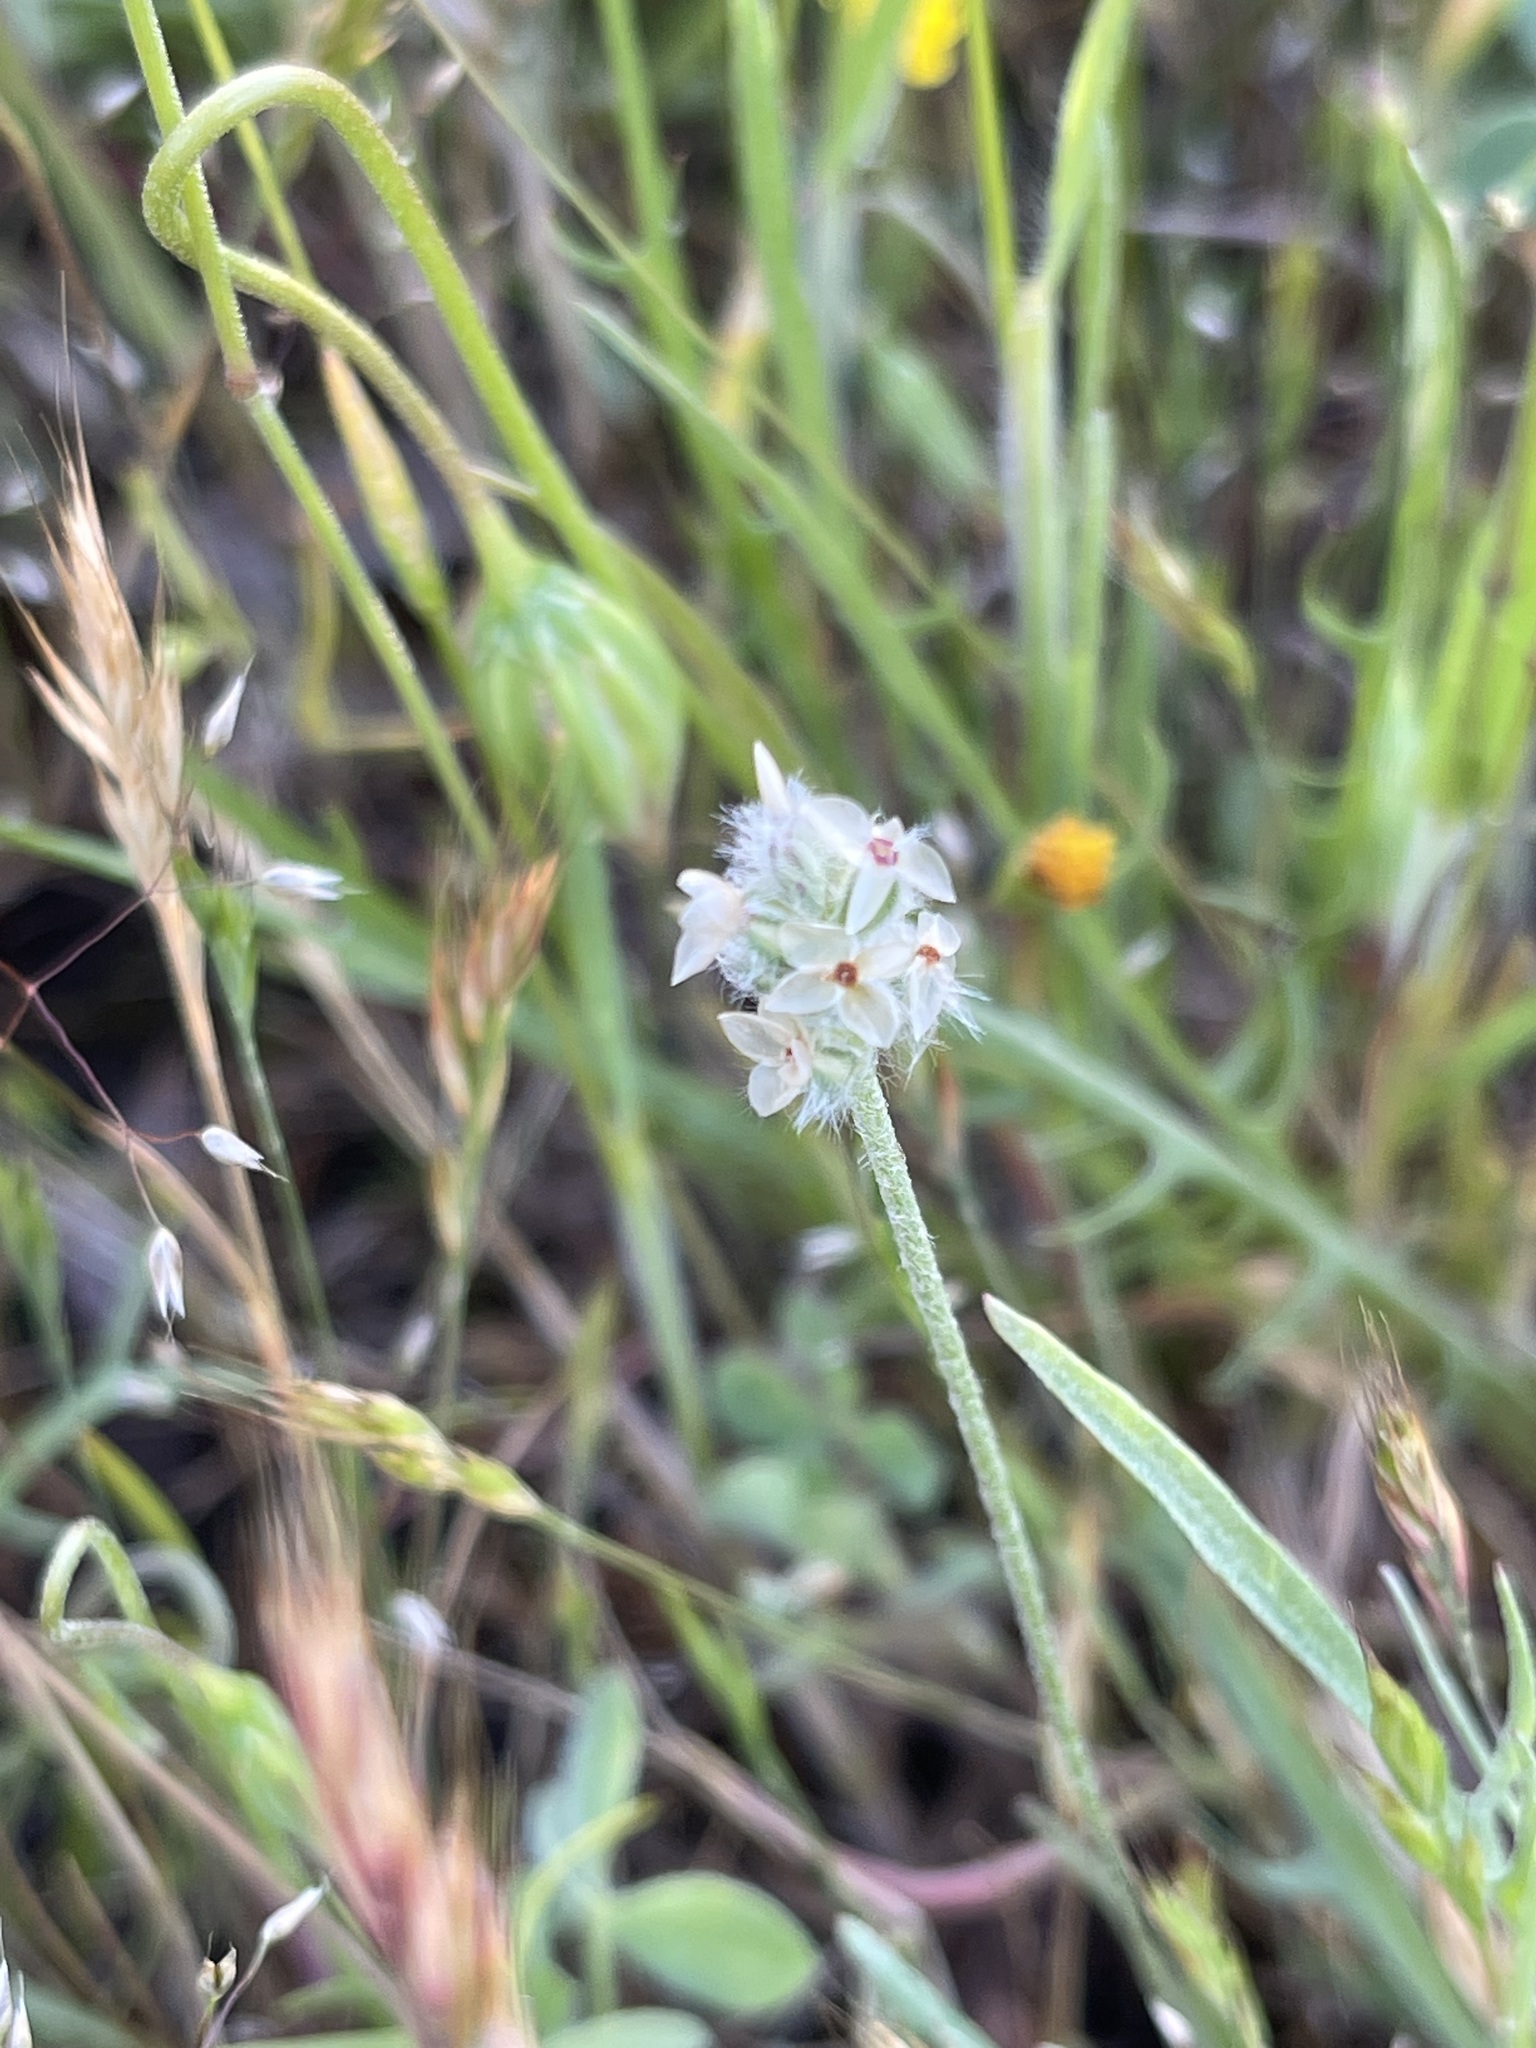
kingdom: Plantae
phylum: Tracheophyta
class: Magnoliopsida
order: Lamiales
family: Plantaginaceae
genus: Plantago
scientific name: Plantago erecta
